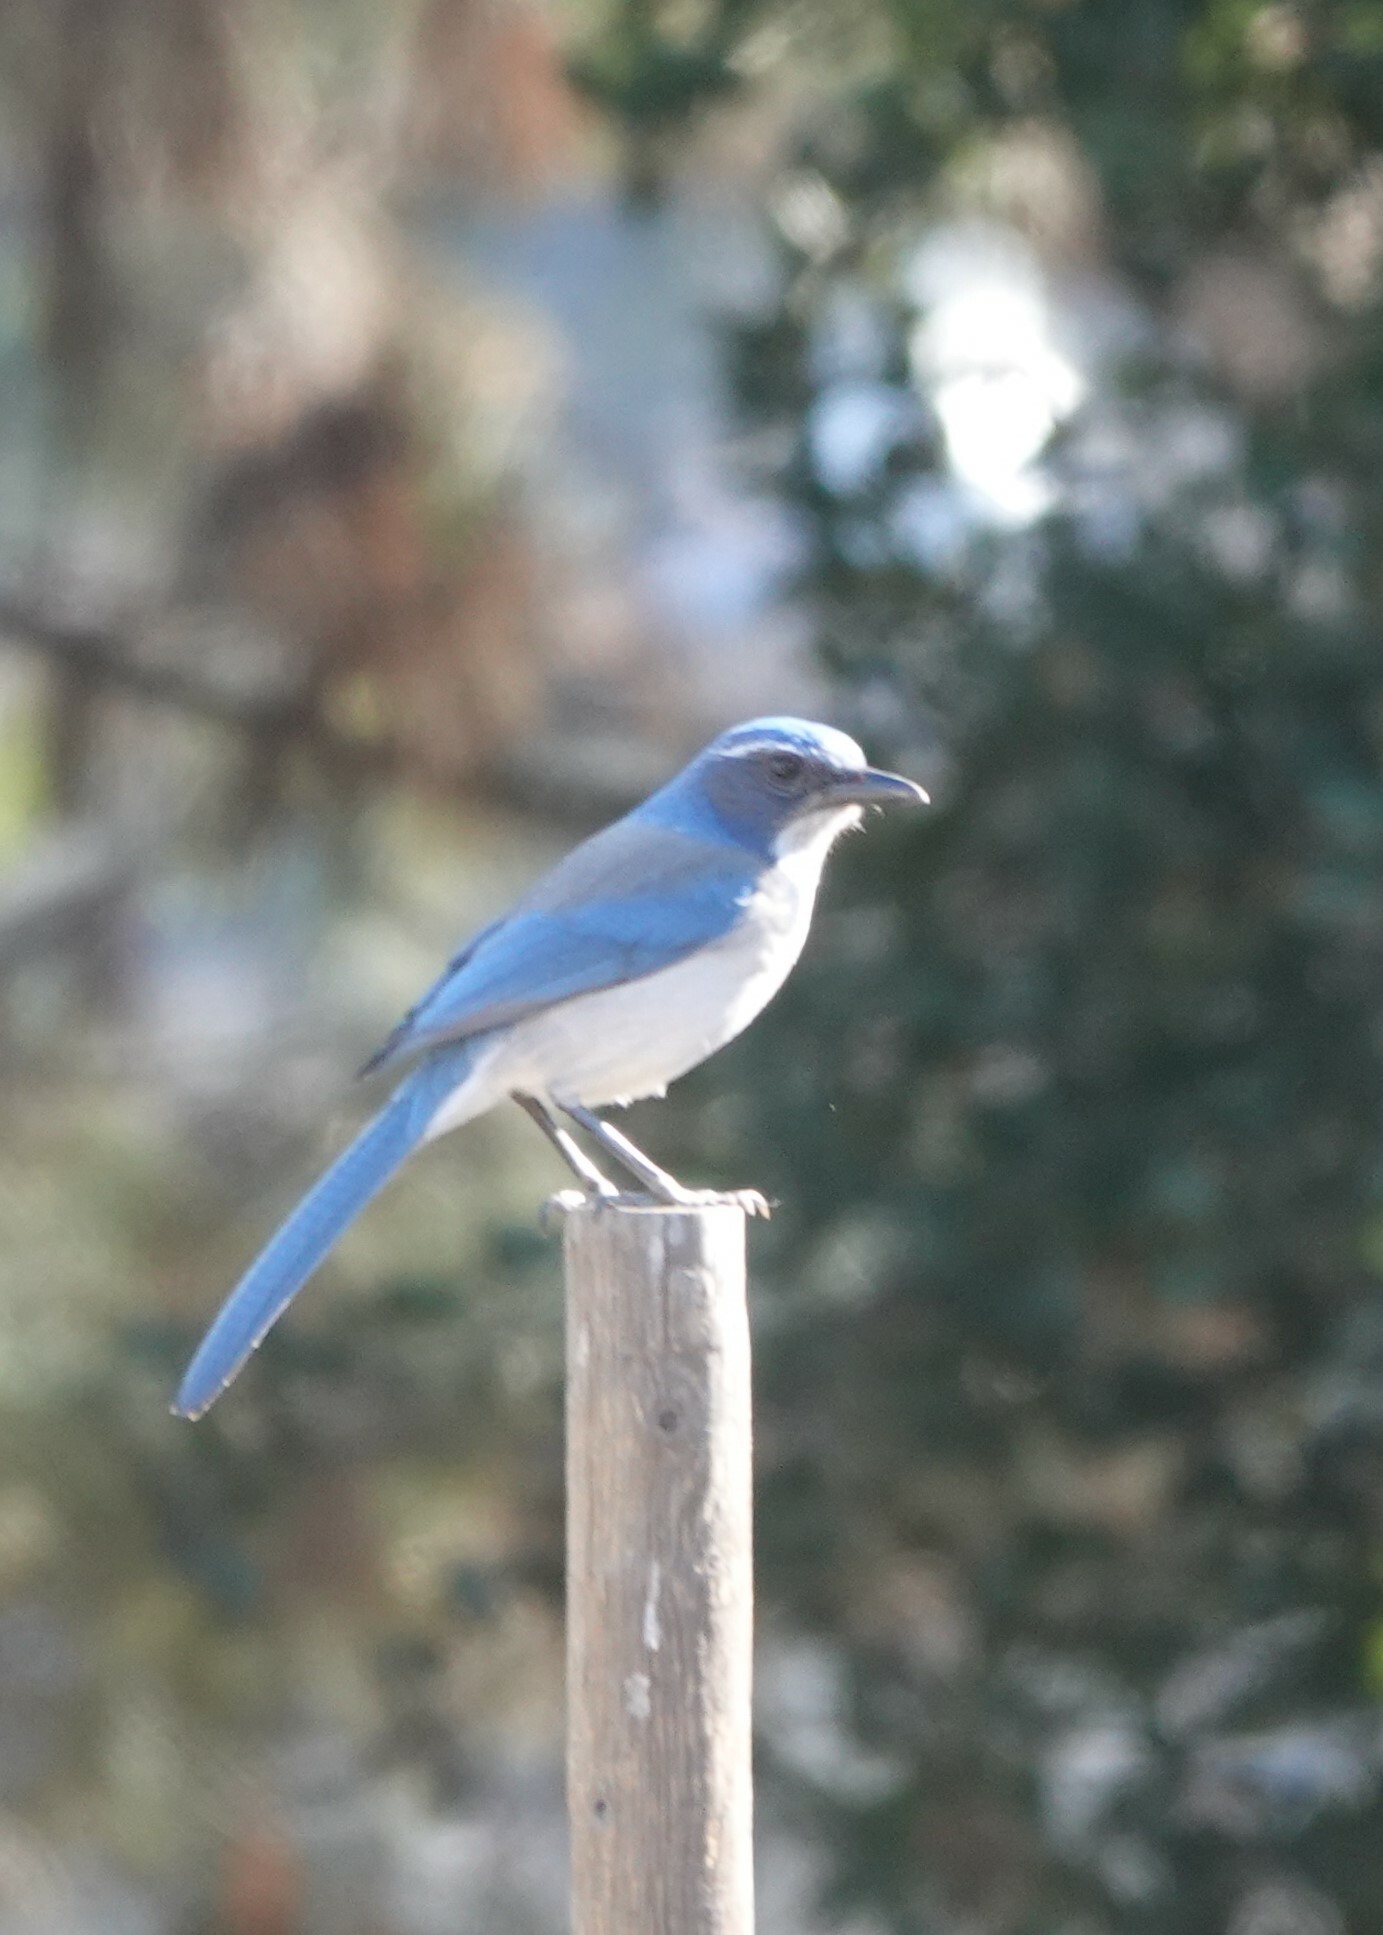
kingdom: Animalia
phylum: Chordata
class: Aves
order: Passeriformes
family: Corvidae
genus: Aphelocoma
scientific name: Aphelocoma californica
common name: California scrub-jay
